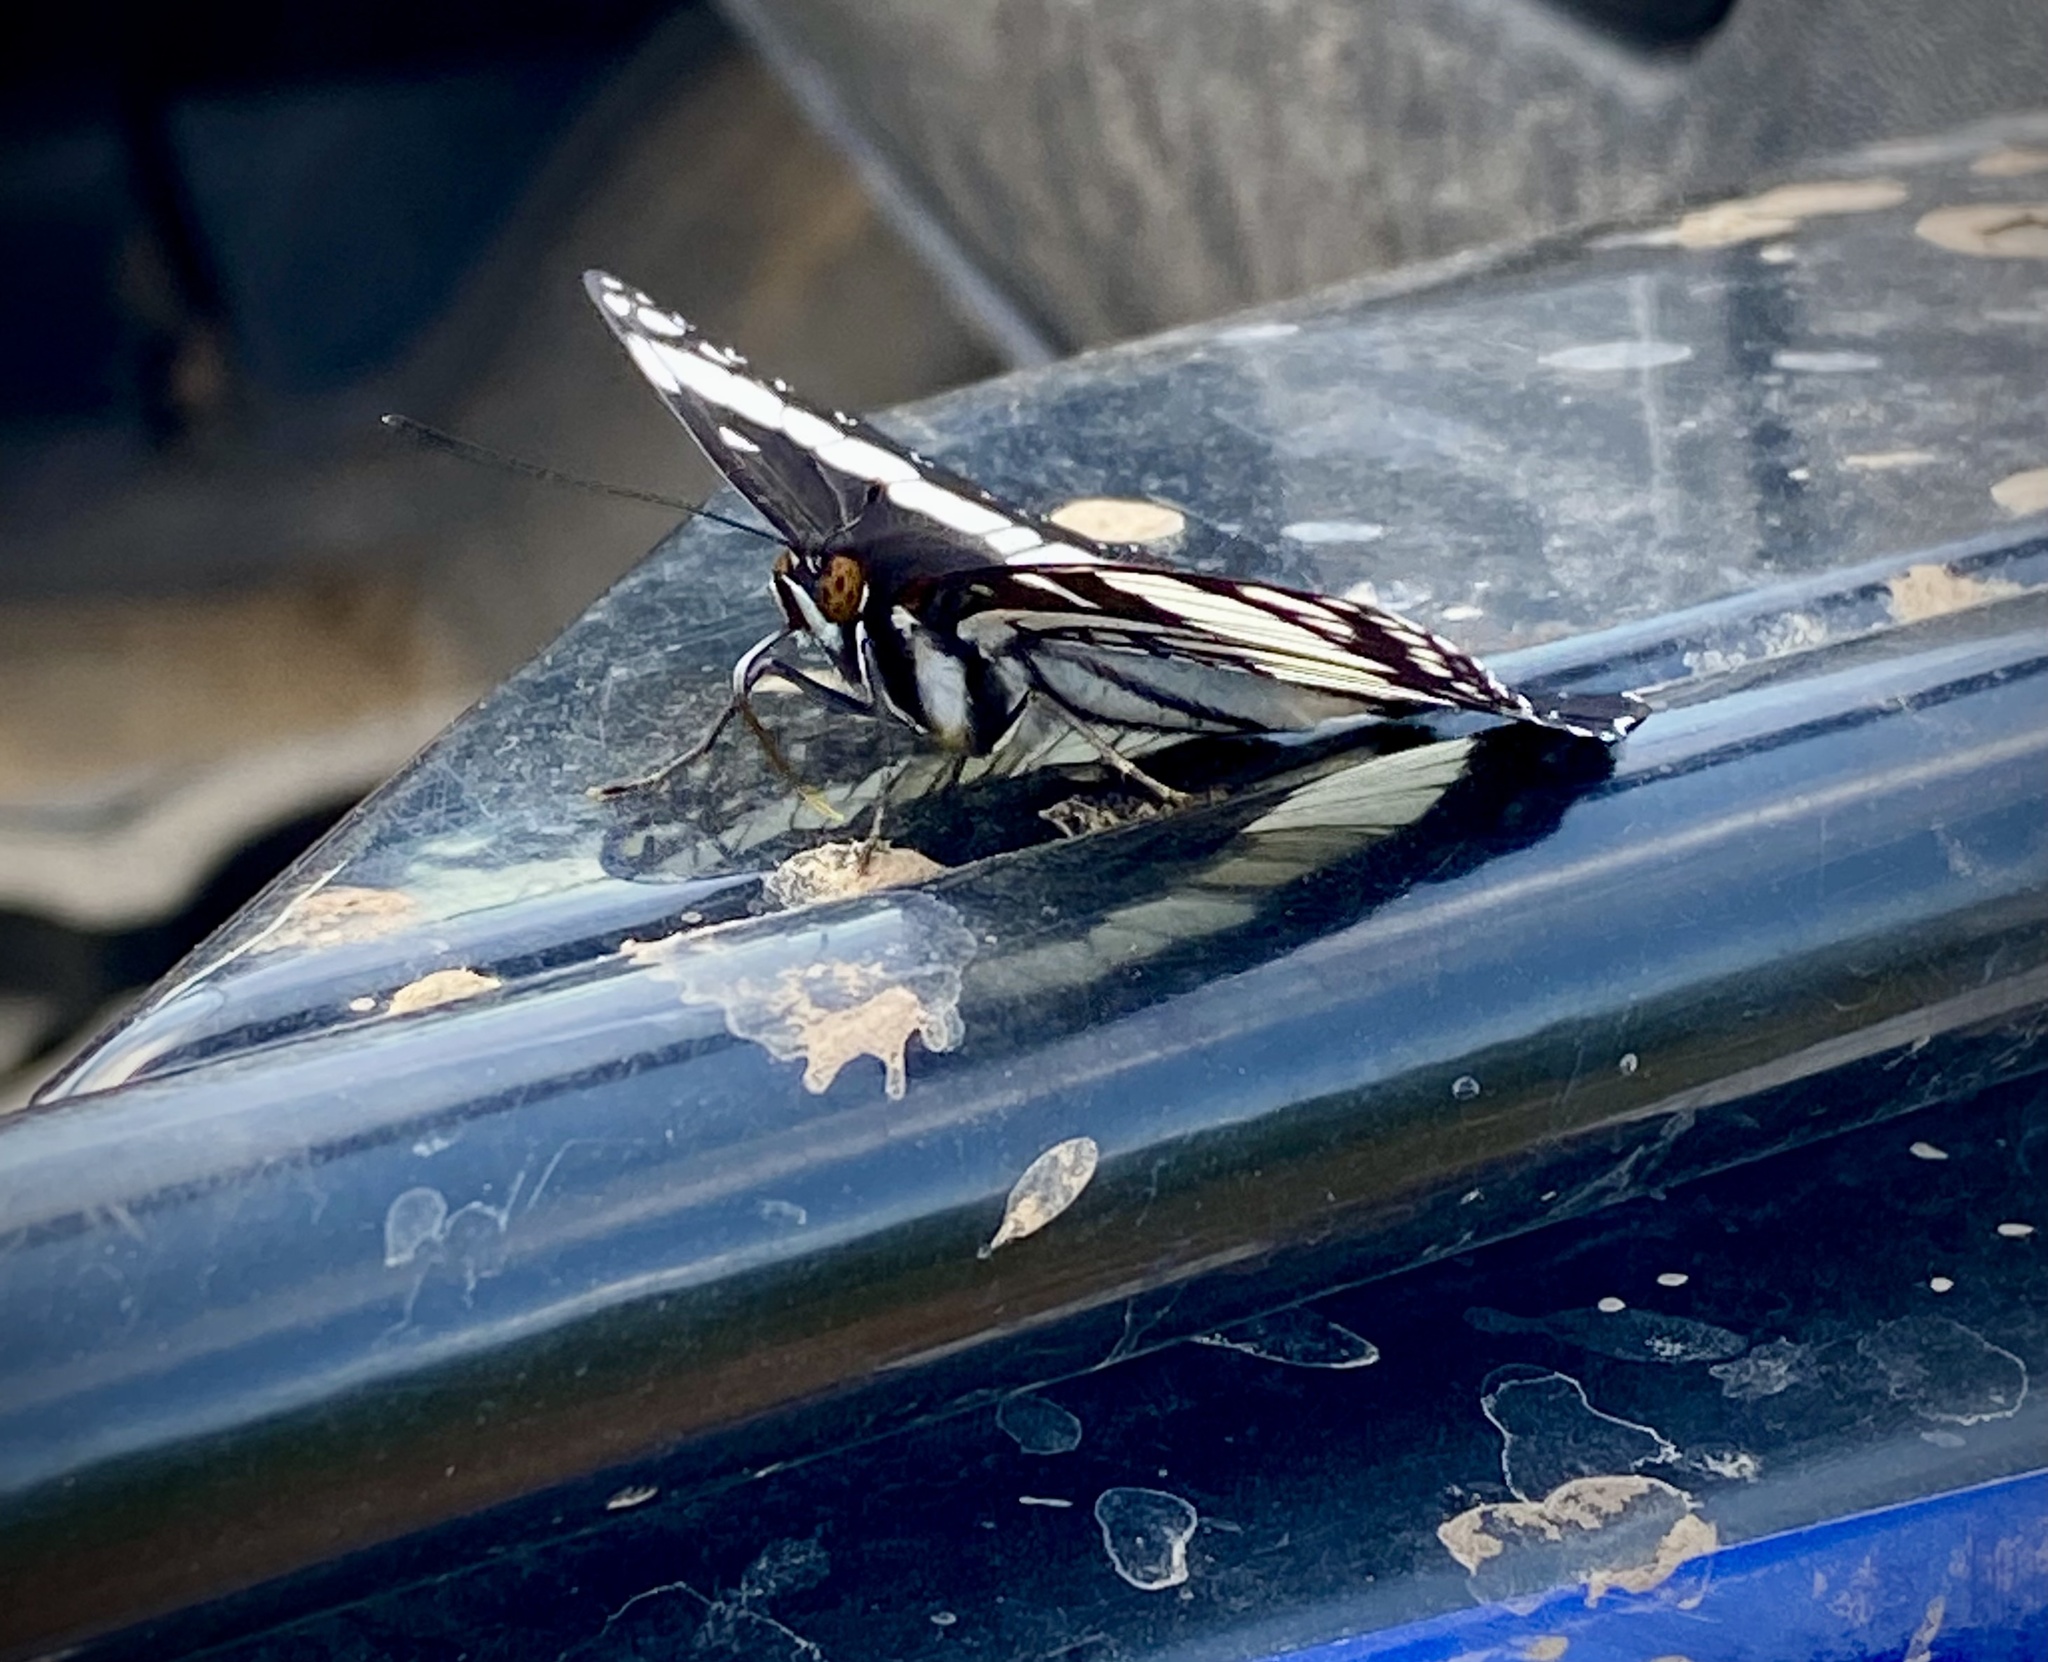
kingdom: Animalia
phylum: Arthropoda
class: Insecta
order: Lepidoptera
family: Nymphalidae
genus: Limenitis
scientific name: Limenitis weidemeyerii
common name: Weidemeyer's admiral
